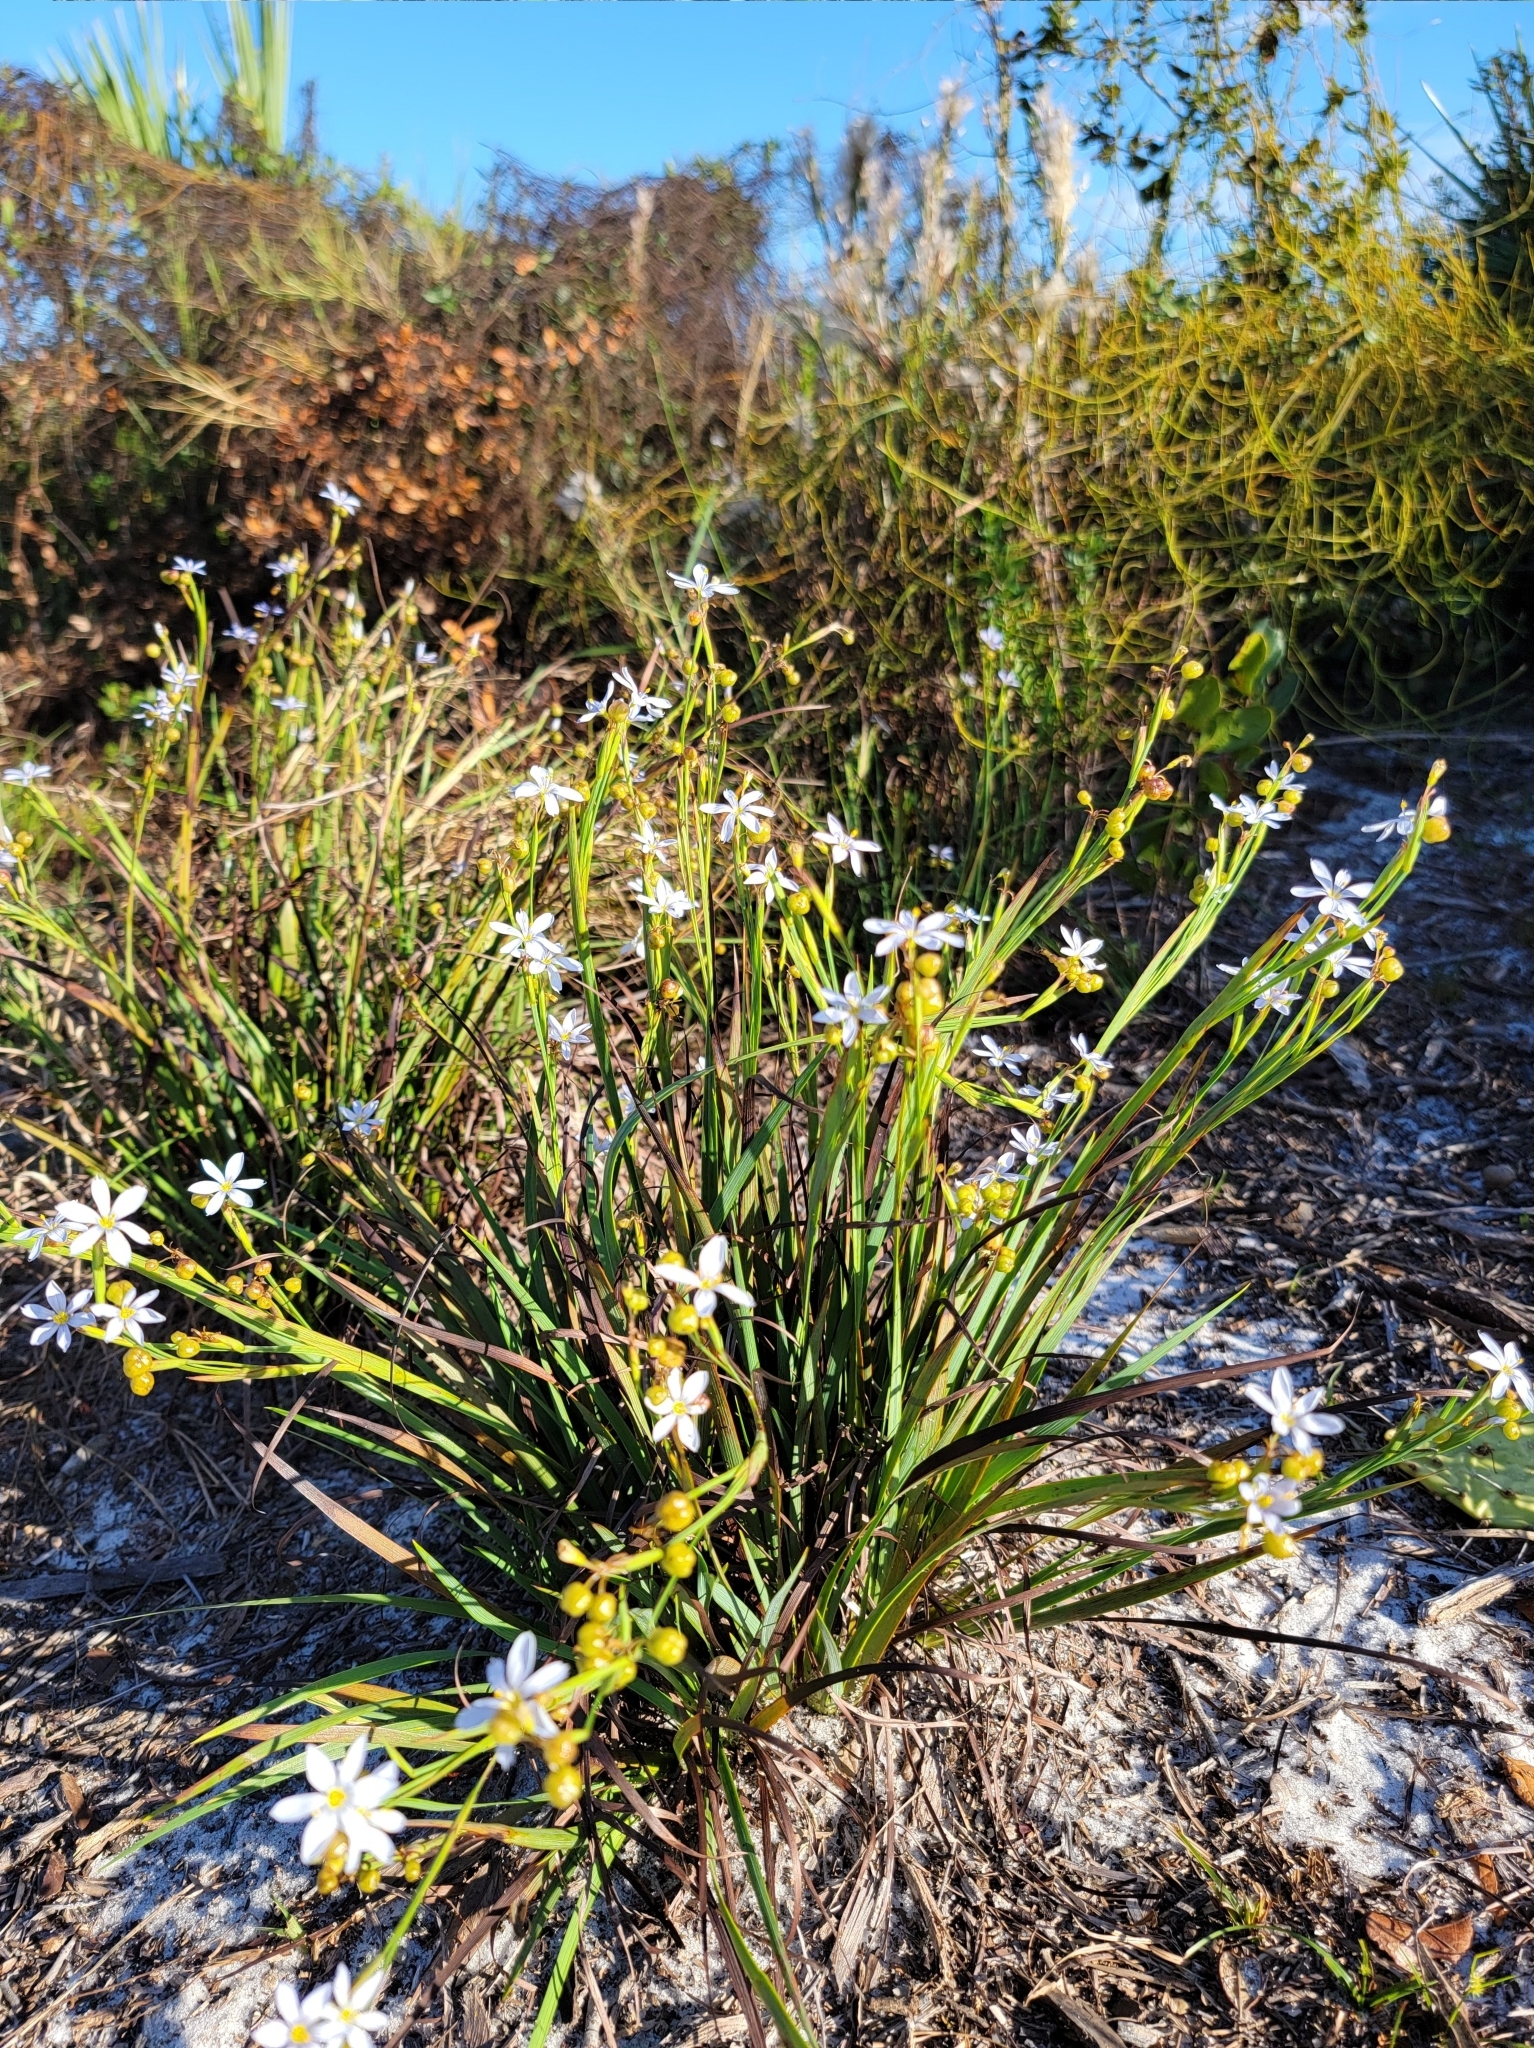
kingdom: Plantae
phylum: Tracheophyta
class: Liliopsida
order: Asparagales
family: Iridaceae
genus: Sisyrinchium
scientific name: Sisyrinchium xerophyllum
